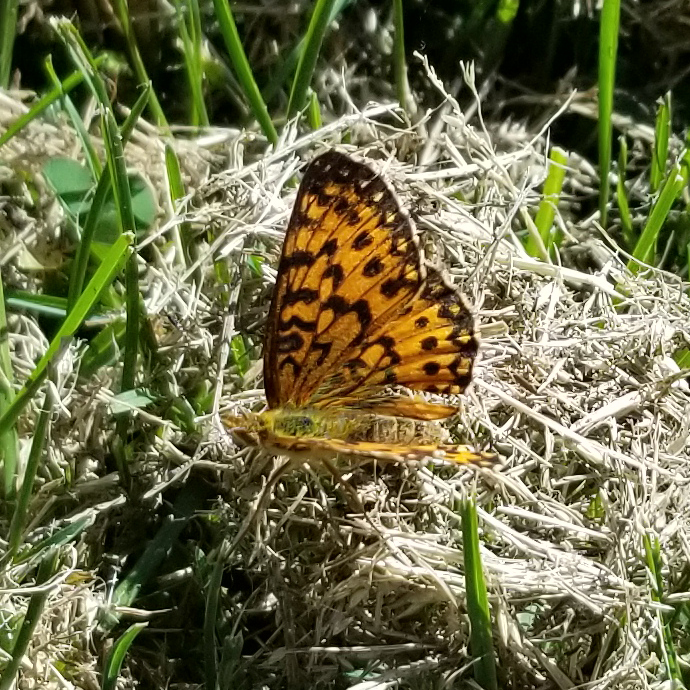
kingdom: Animalia
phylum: Arthropoda
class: Insecta
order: Lepidoptera
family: Nymphalidae
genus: Boloria
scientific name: Boloria
